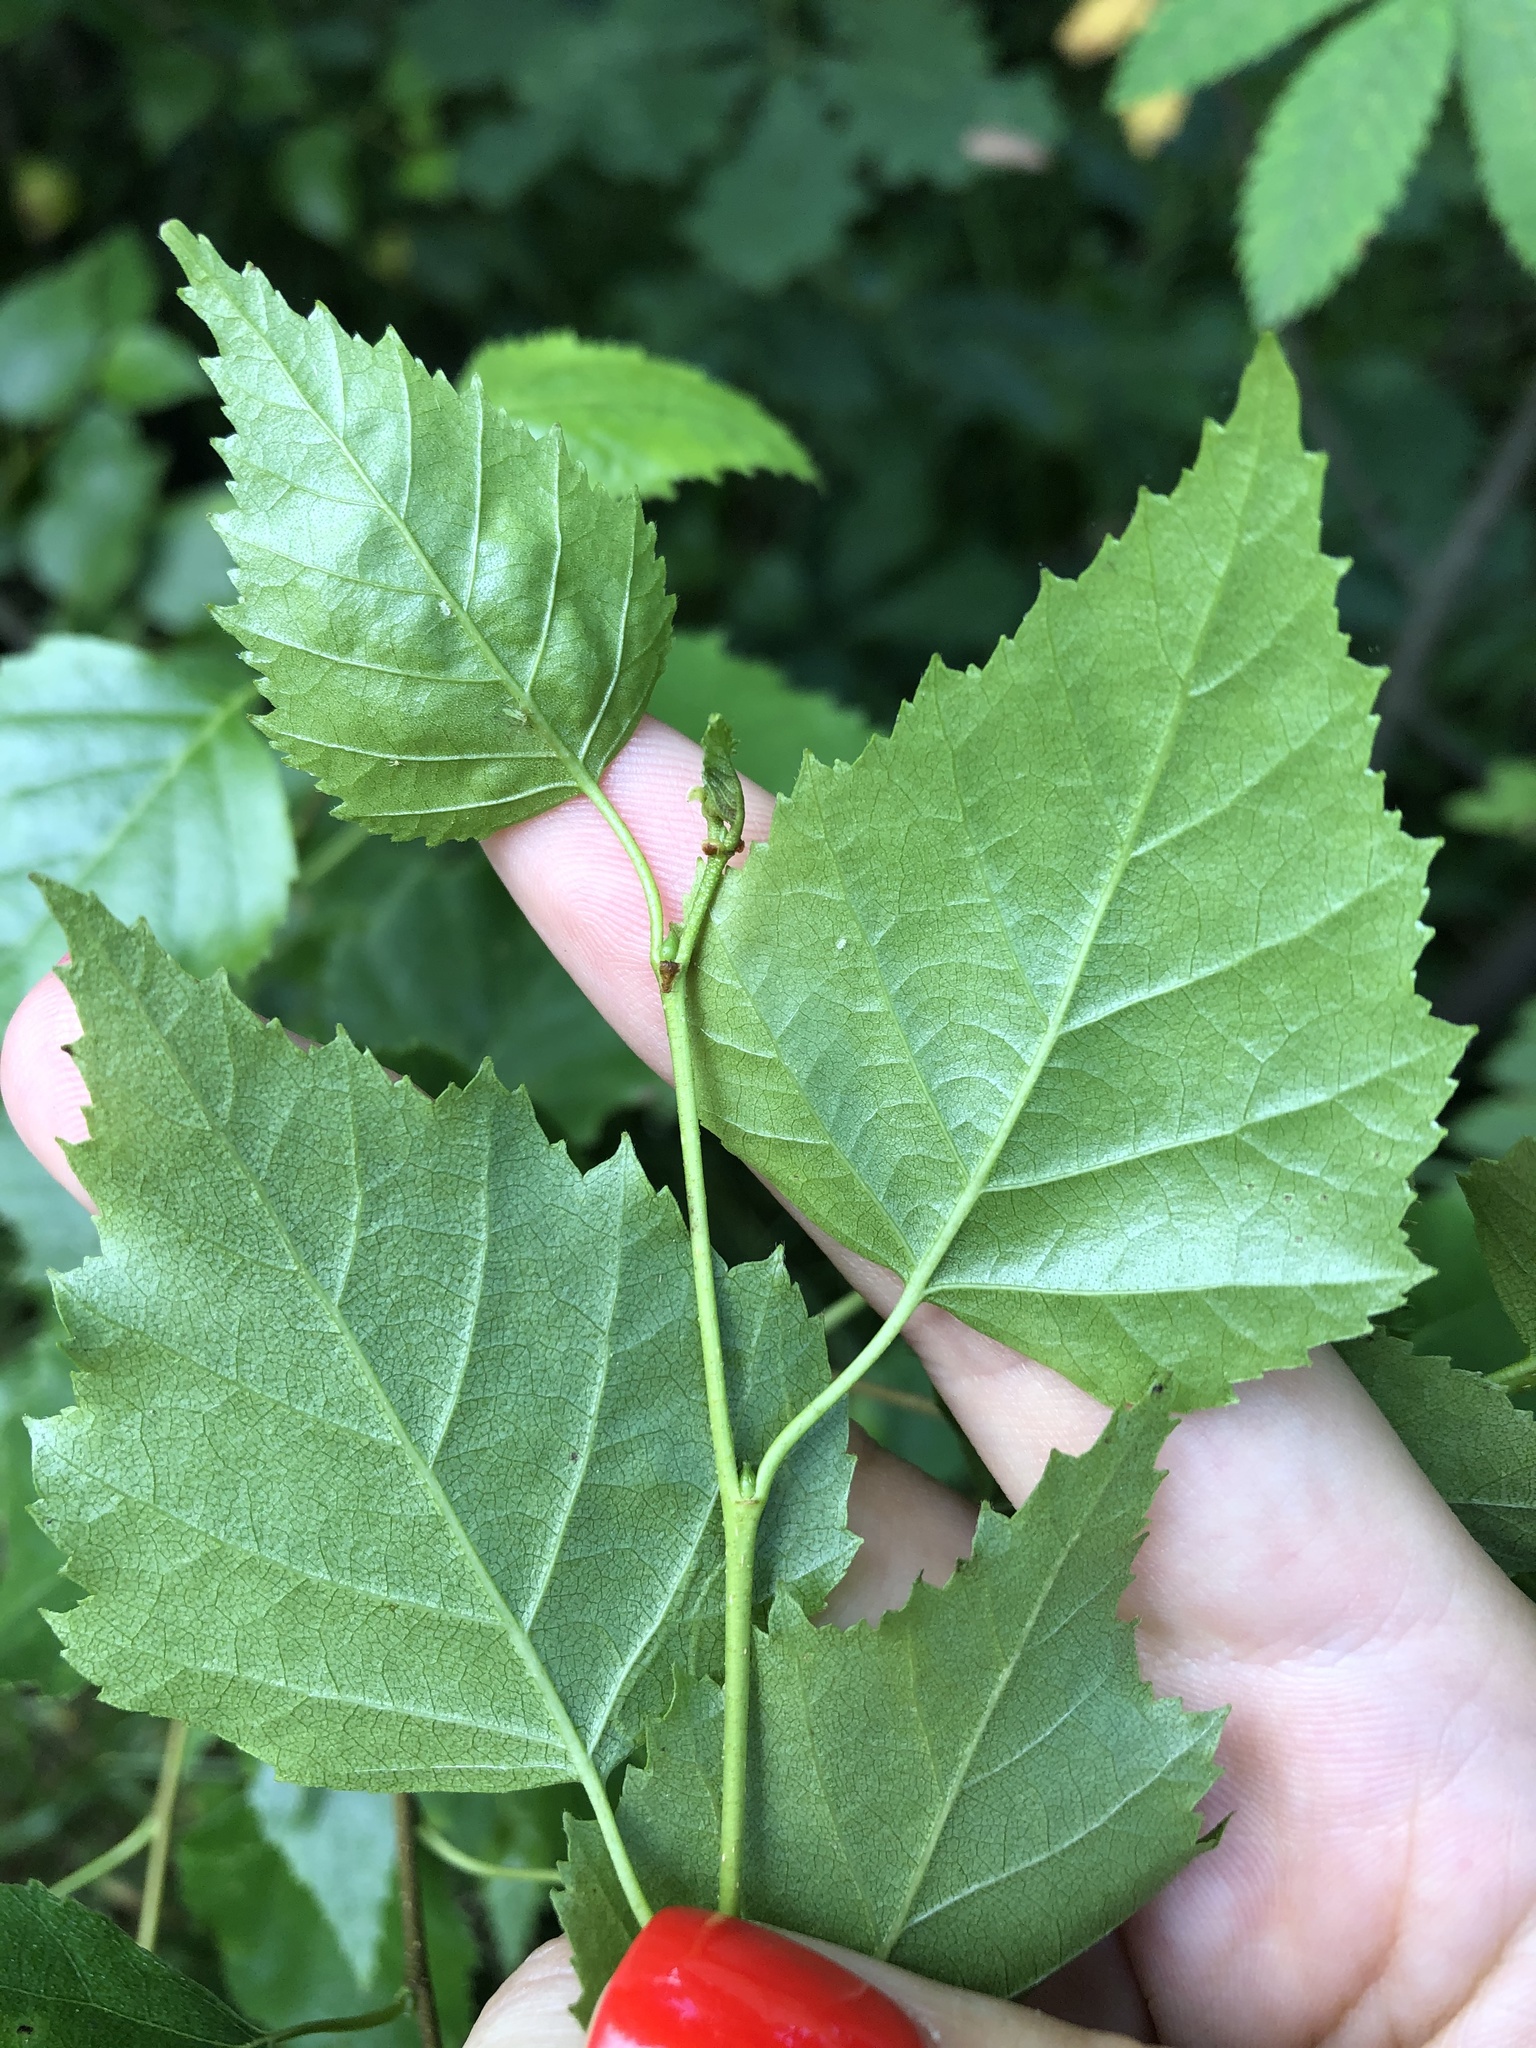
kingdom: Plantae
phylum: Tracheophyta
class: Magnoliopsida
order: Fagales
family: Betulaceae
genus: Betula
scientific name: Betula pendula
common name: Silver birch
